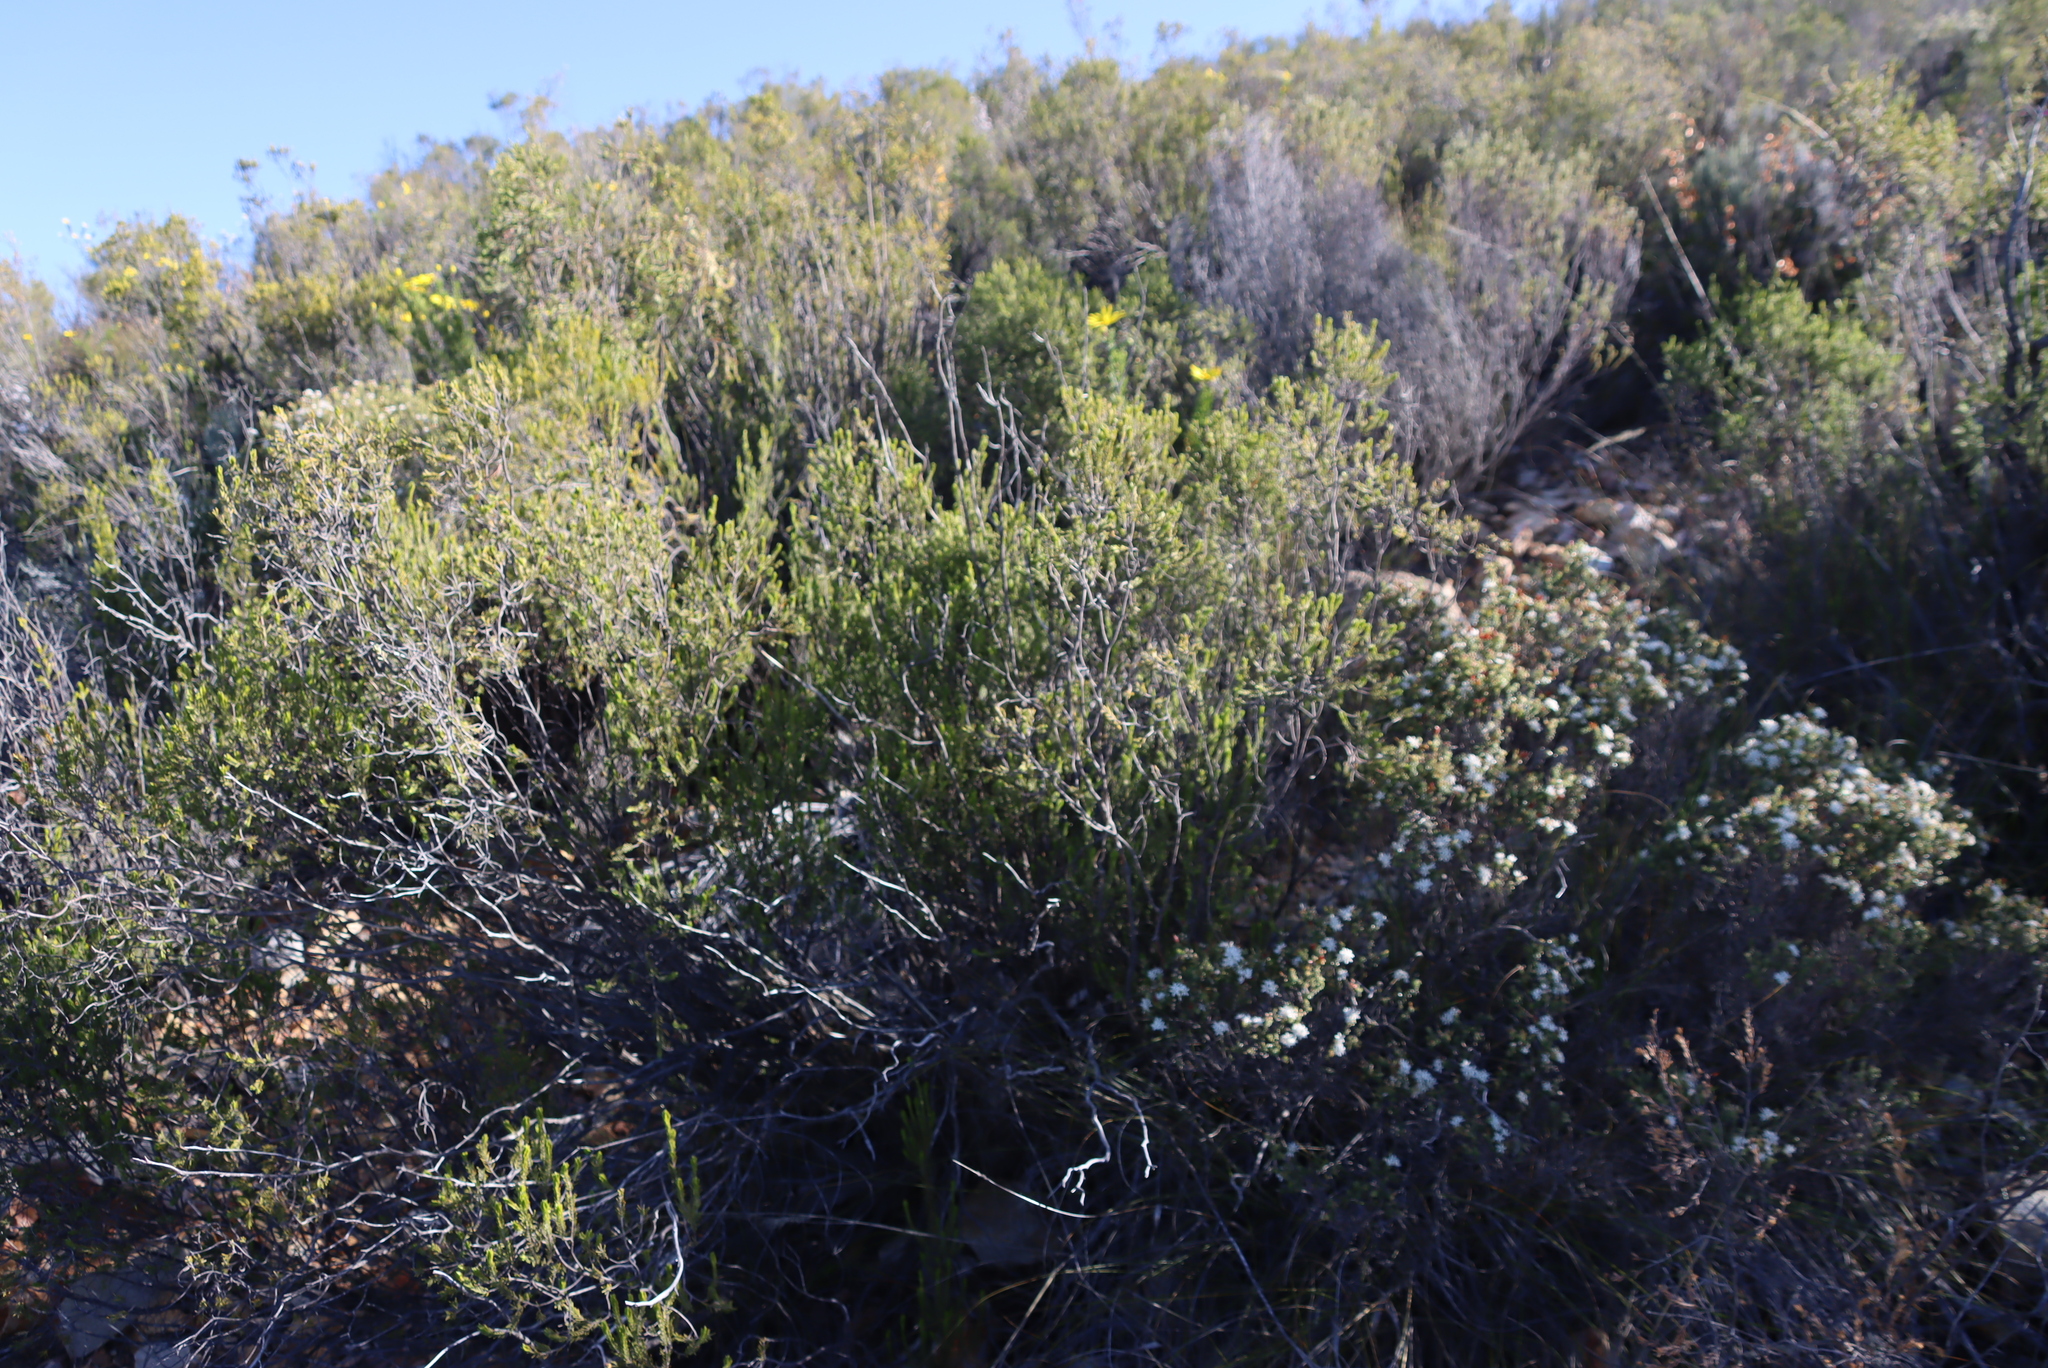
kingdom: Plantae
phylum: Tracheophyta
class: Magnoliopsida
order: Sapindales
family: Rutaceae
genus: Agathosma
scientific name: Agathosma recurvifolia
